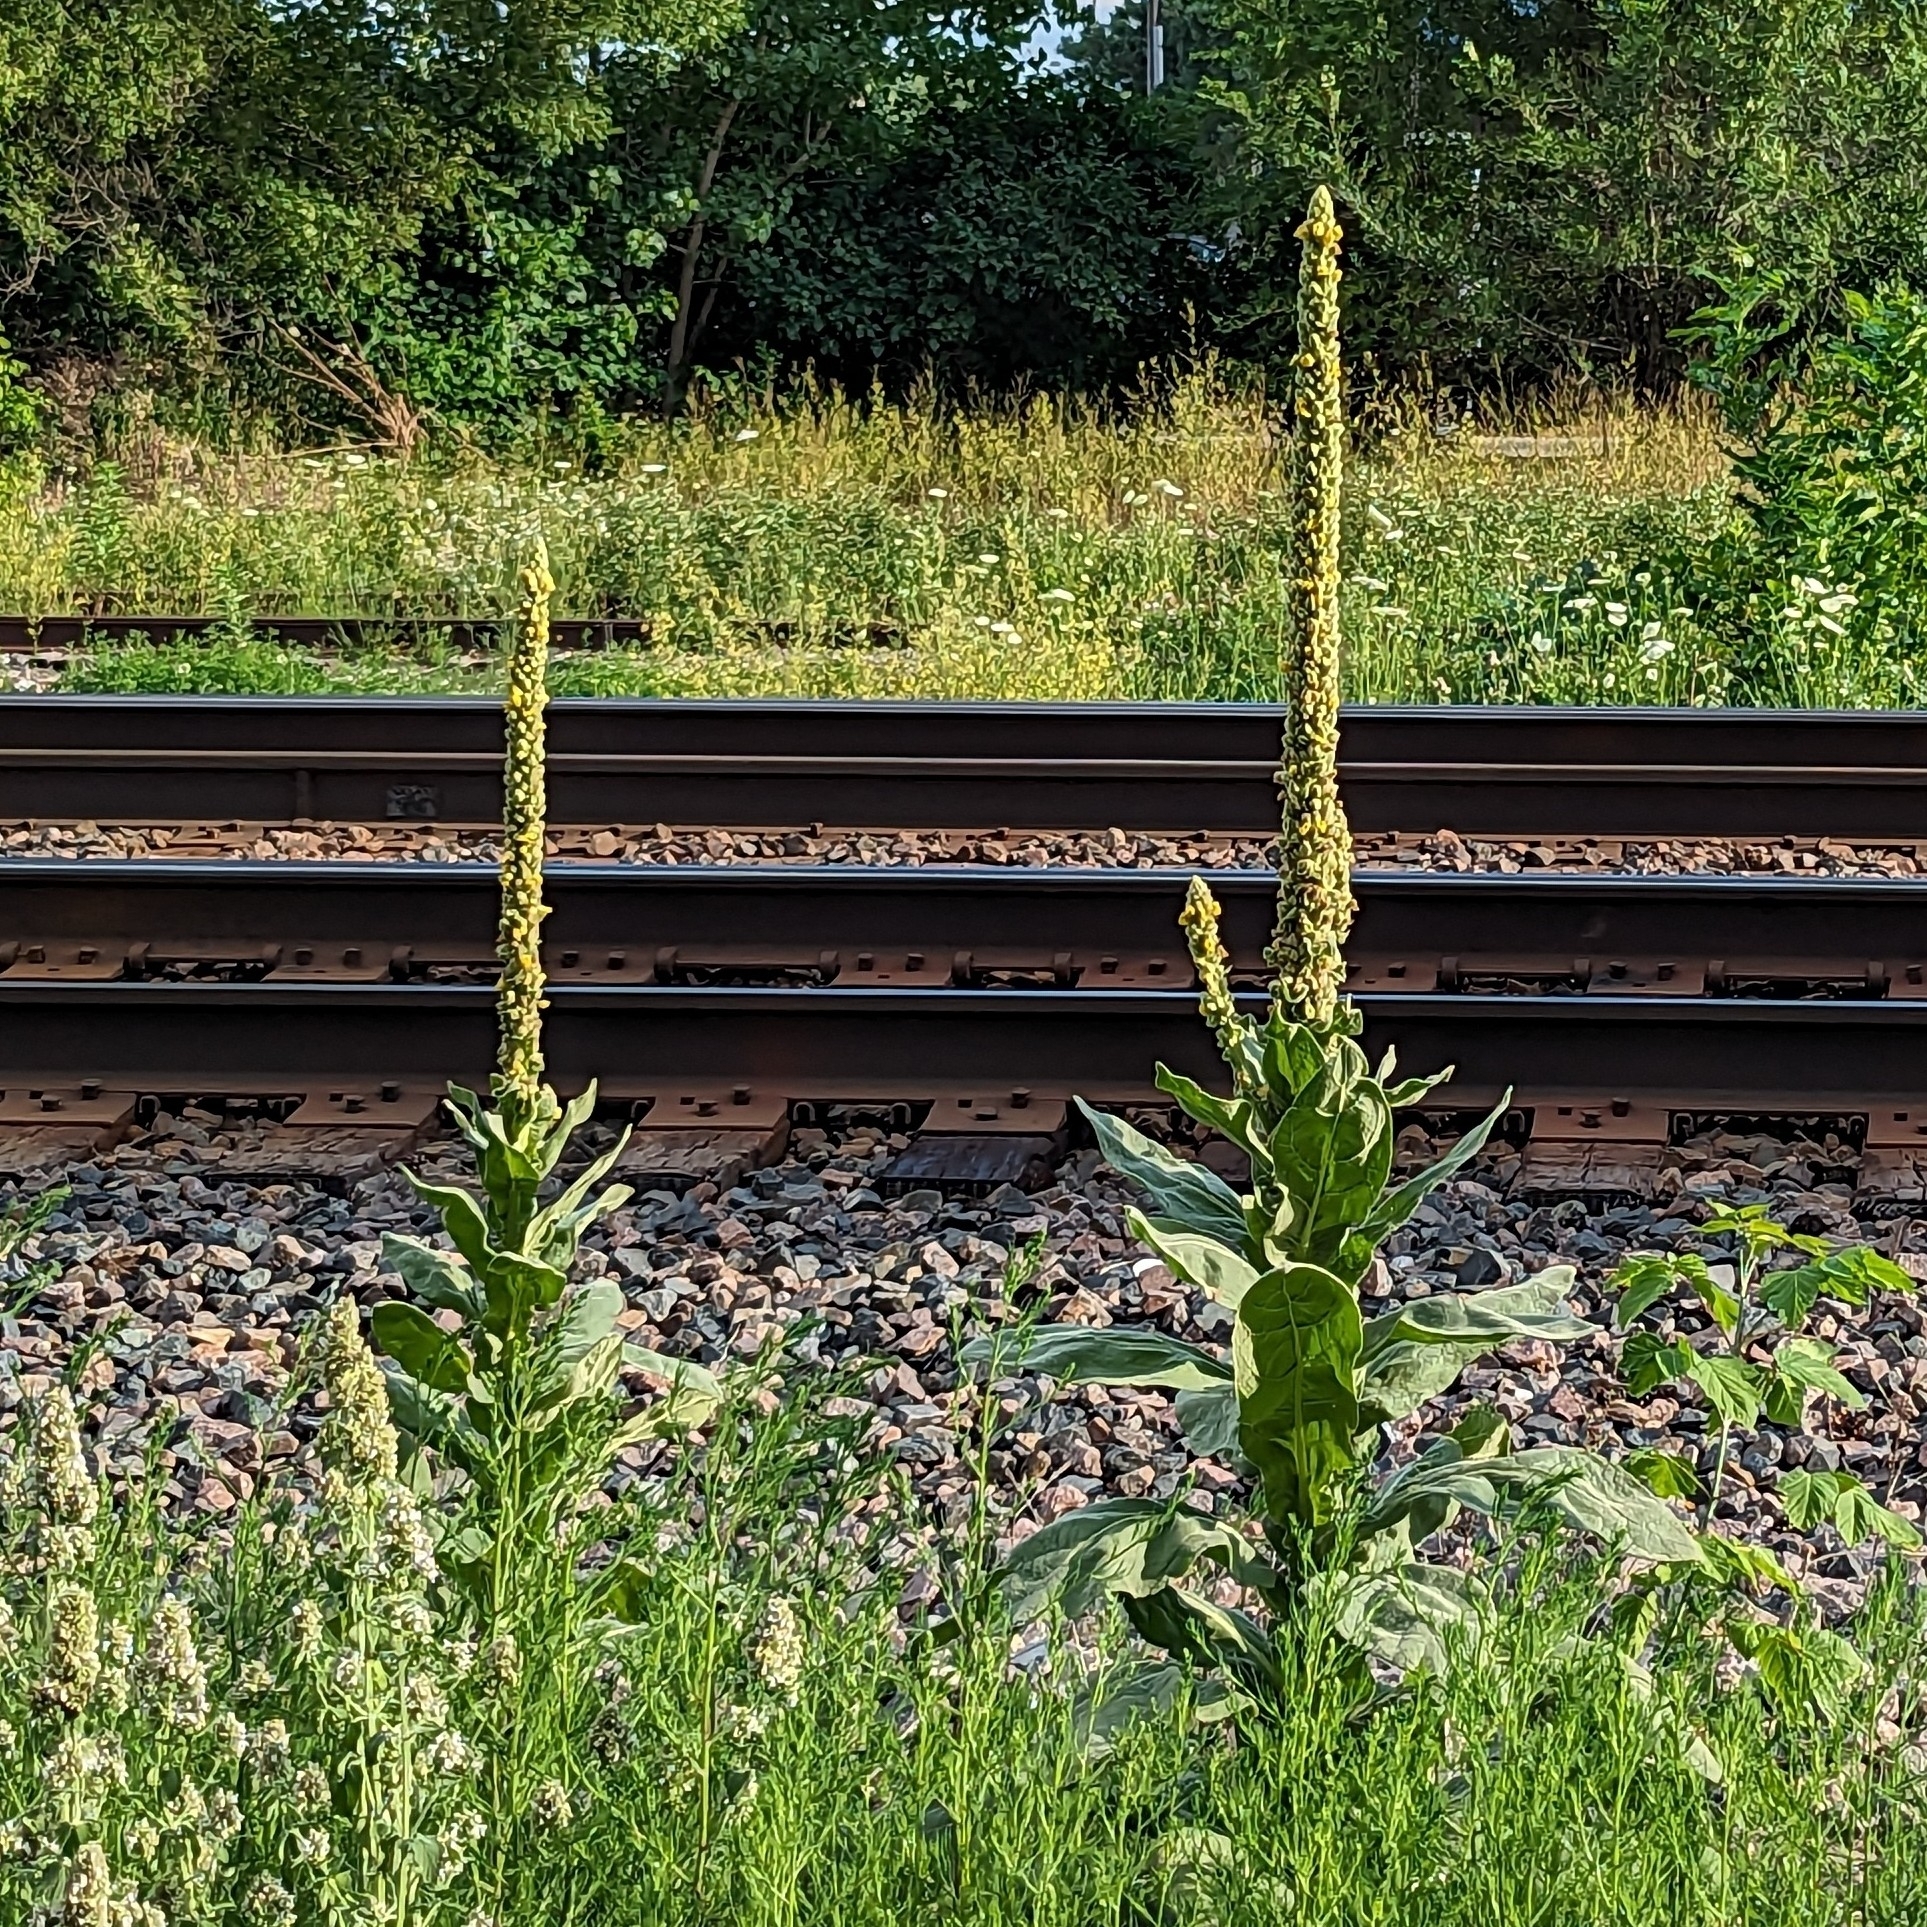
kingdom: Plantae
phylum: Tracheophyta
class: Magnoliopsida
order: Lamiales
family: Scrophulariaceae
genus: Verbascum
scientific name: Verbascum thapsus
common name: Common mullein
